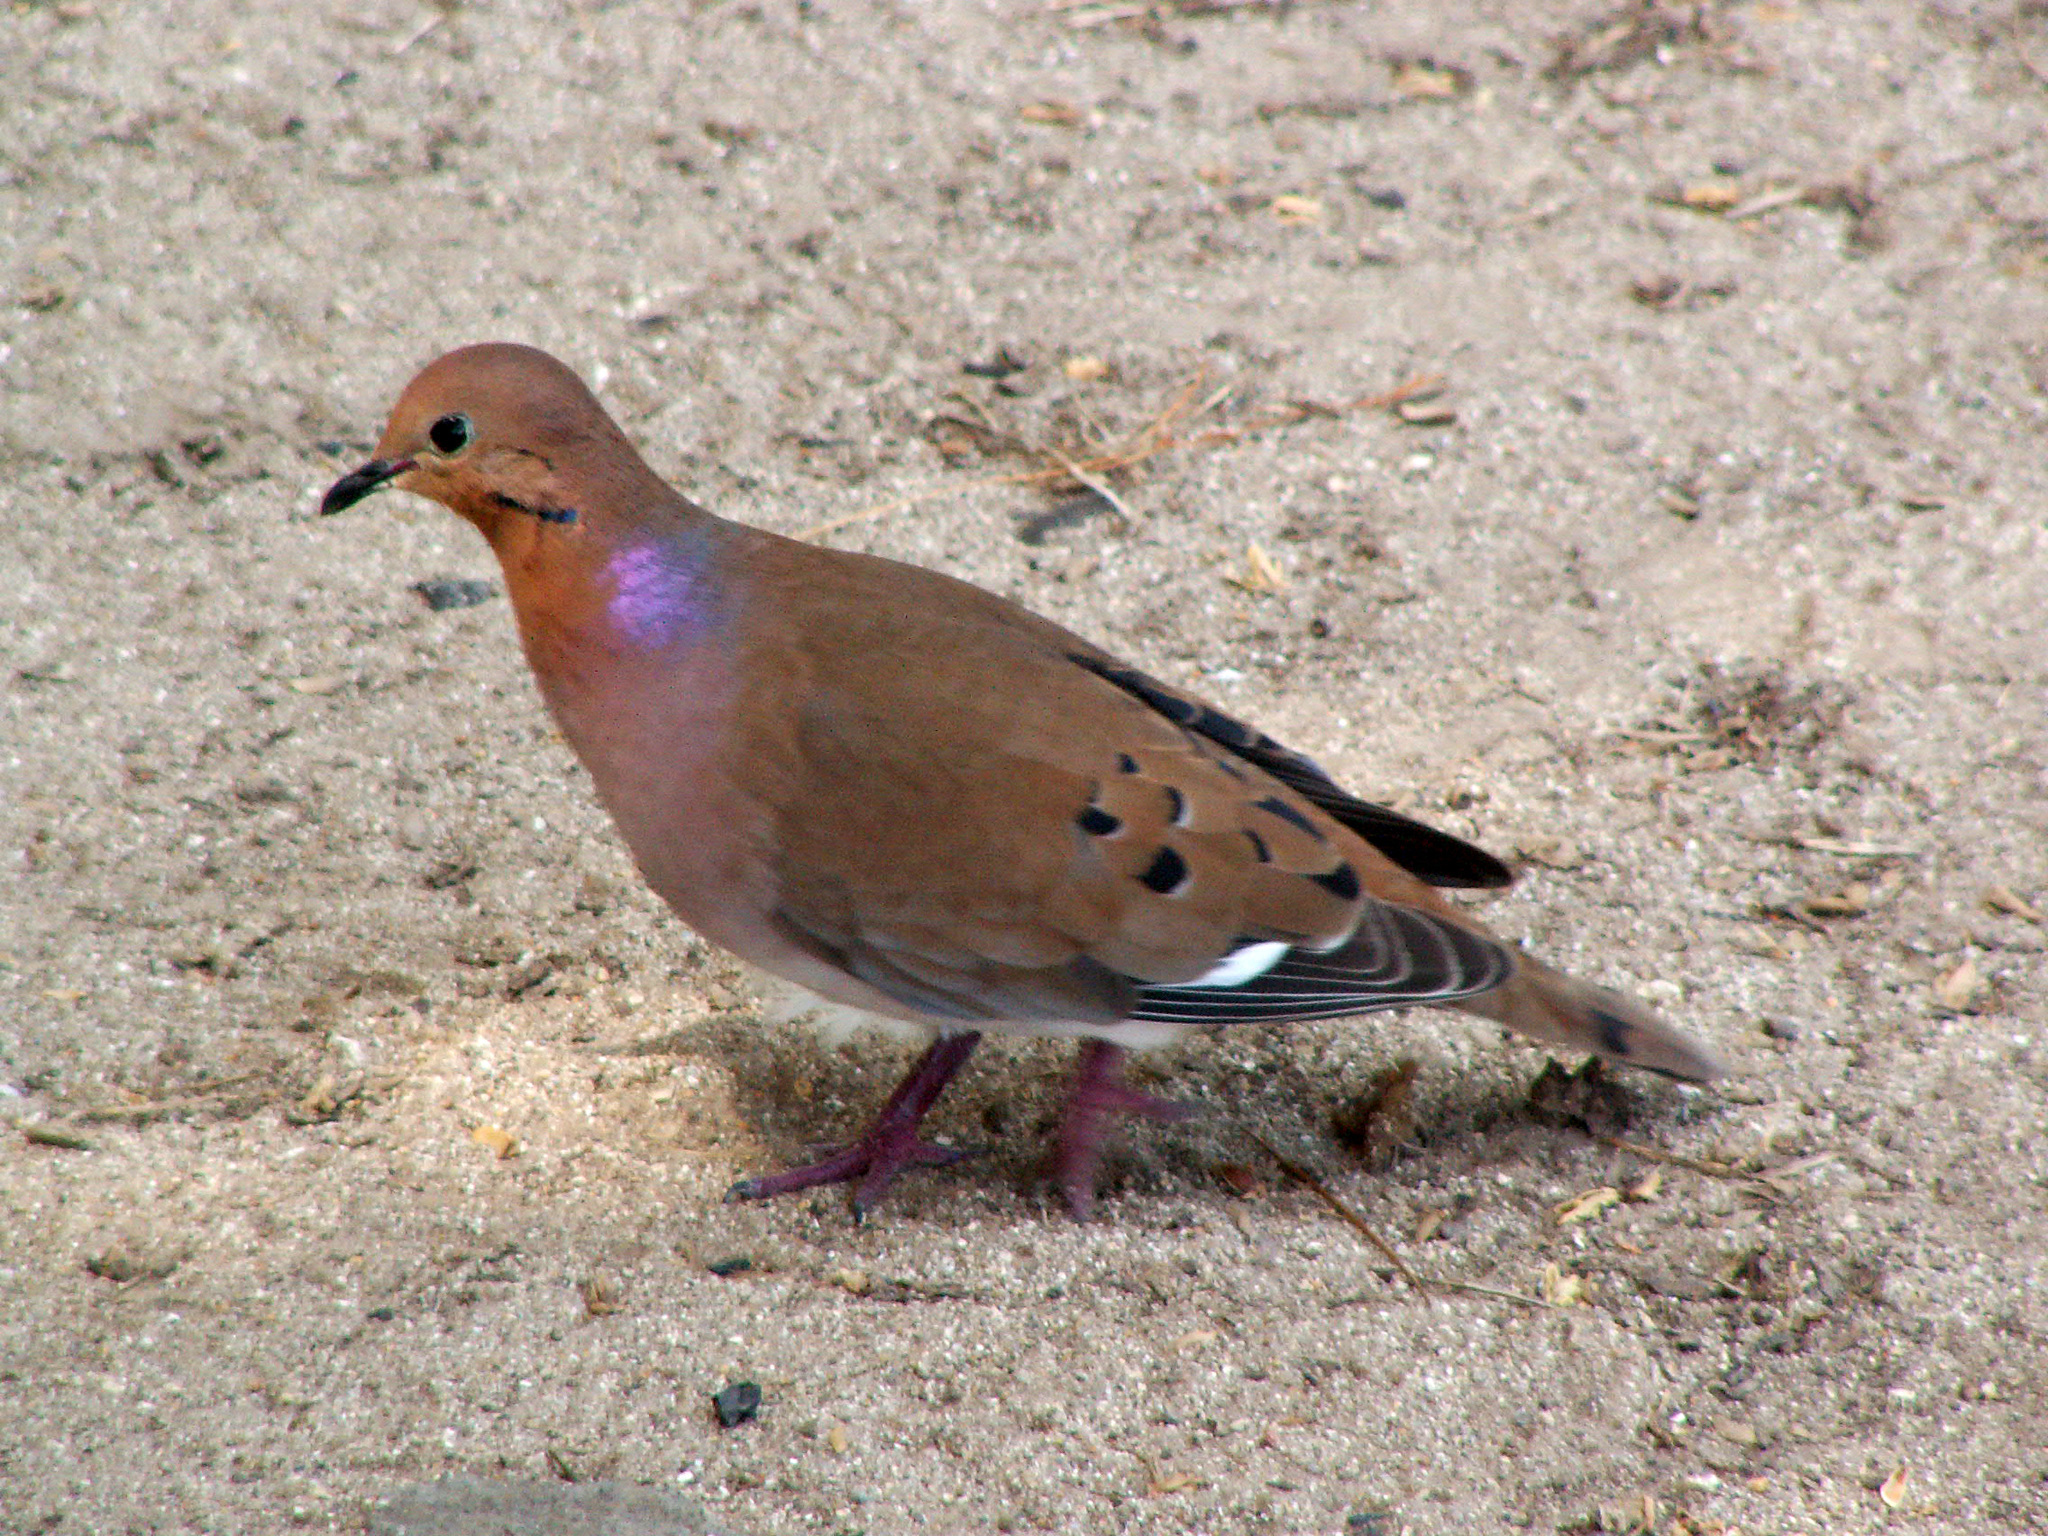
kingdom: Animalia
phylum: Chordata
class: Aves
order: Columbiformes
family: Columbidae
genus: Zenaida
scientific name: Zenaida aurita
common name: Zenaida dove
